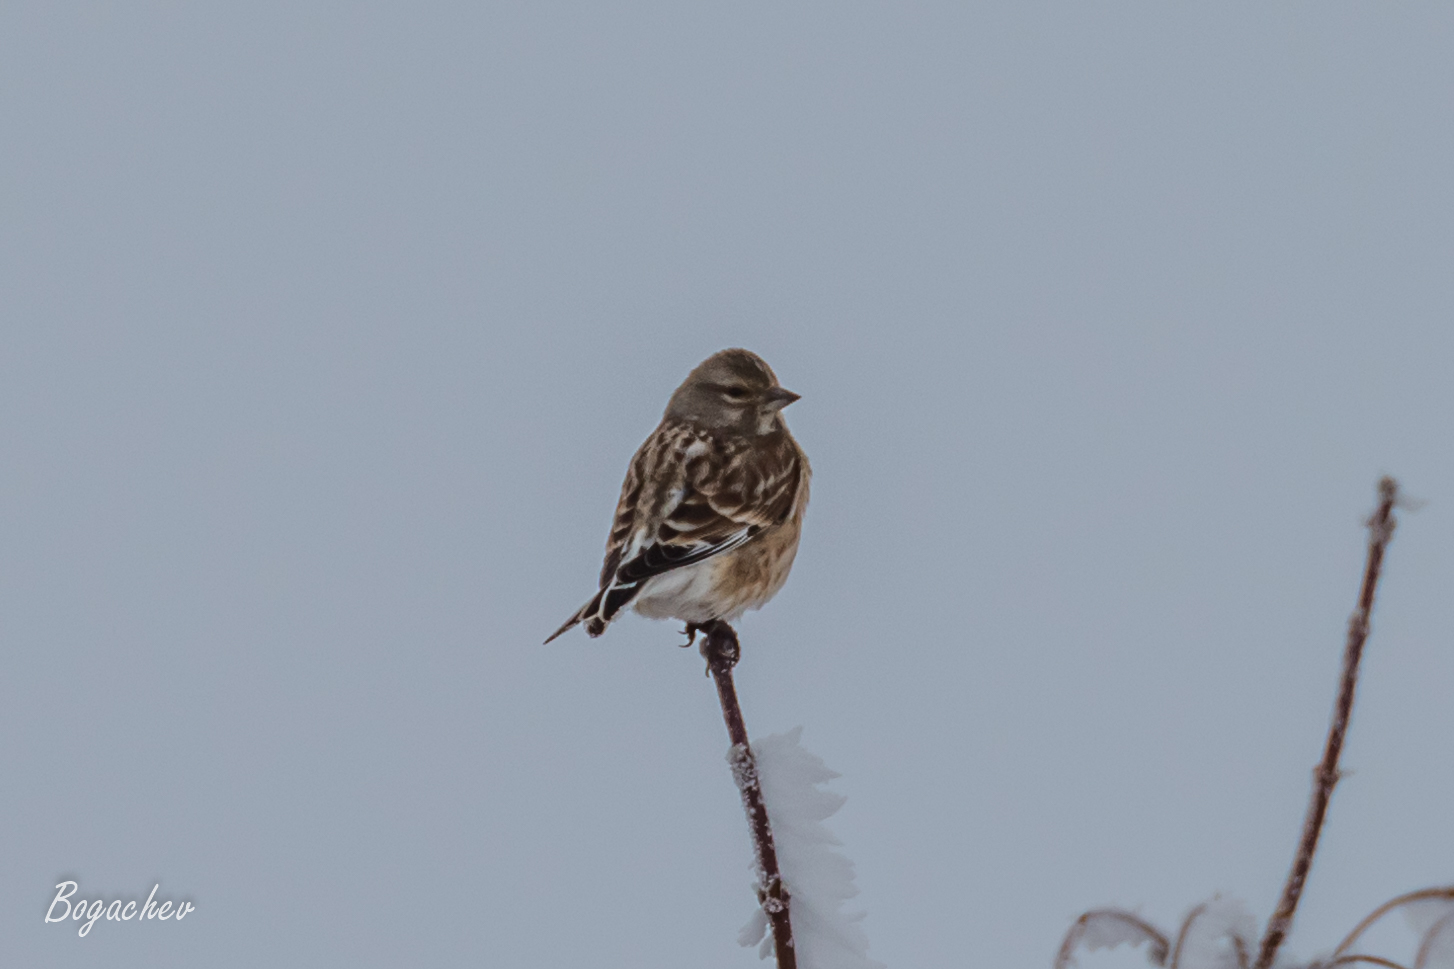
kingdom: Animalia
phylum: Chordata
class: Aves
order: Passeriformes
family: Fringillidae
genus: Linaria
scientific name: Linaria cannabina
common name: Common linnet
